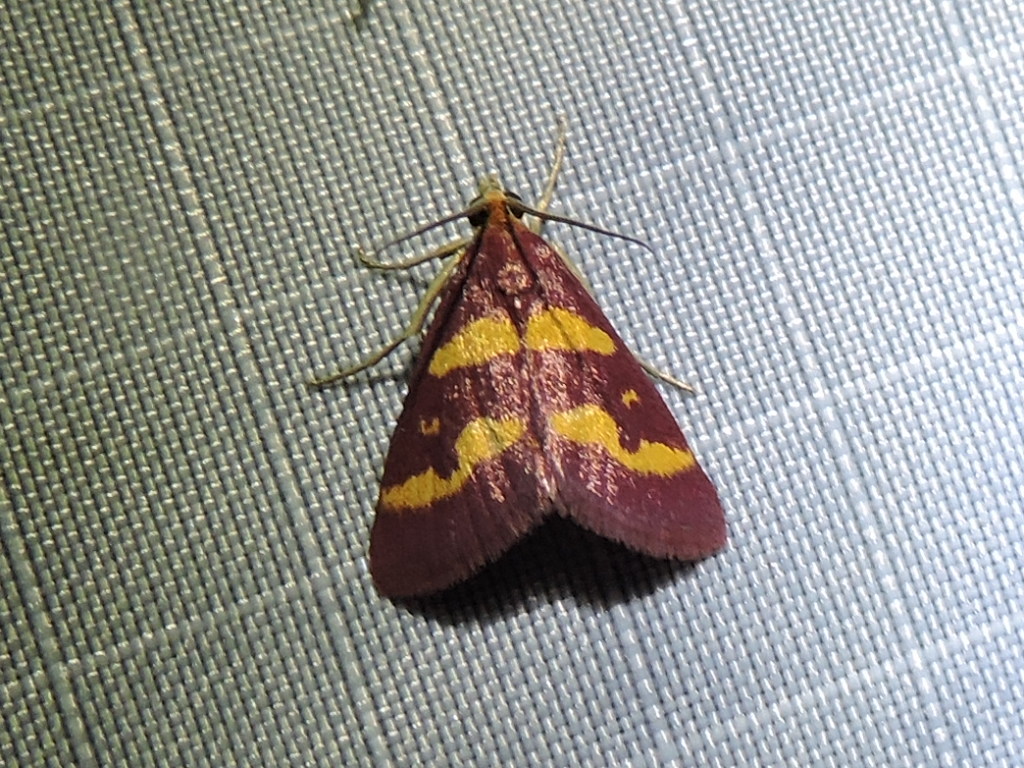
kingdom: Animalia
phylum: Arthropoda
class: Insecta
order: Lepidoptera
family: Crambidae
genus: Pyrausta
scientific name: Pyrausta tyralis
